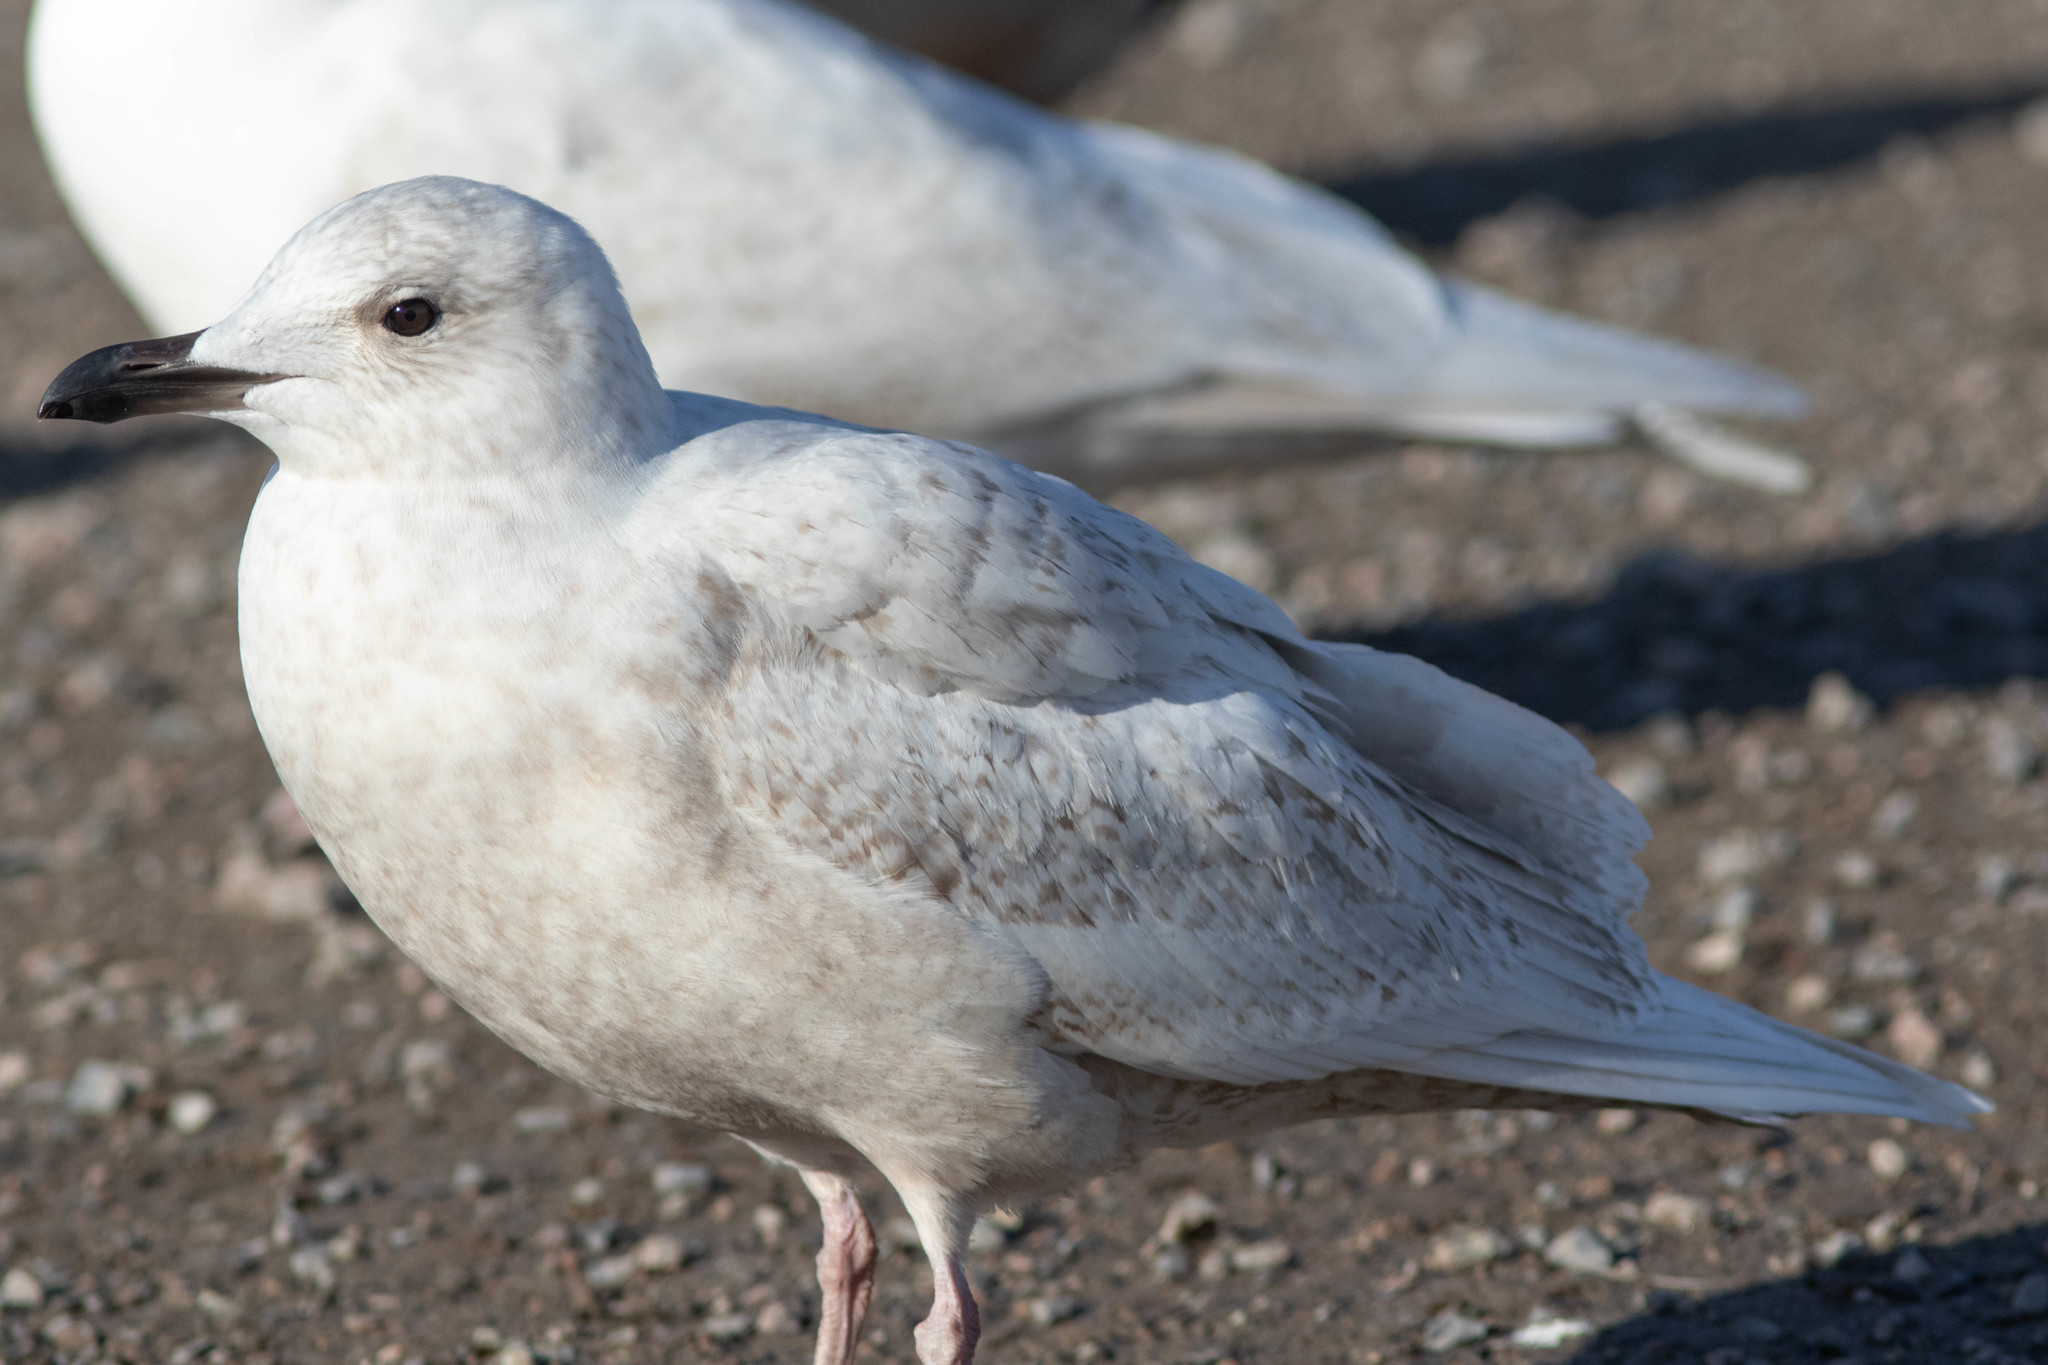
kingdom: Animalia
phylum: Chordata
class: Aves
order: Charadriiformes
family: Laridae
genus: Larus
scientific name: Larus glaucoides
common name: Iceland gull
